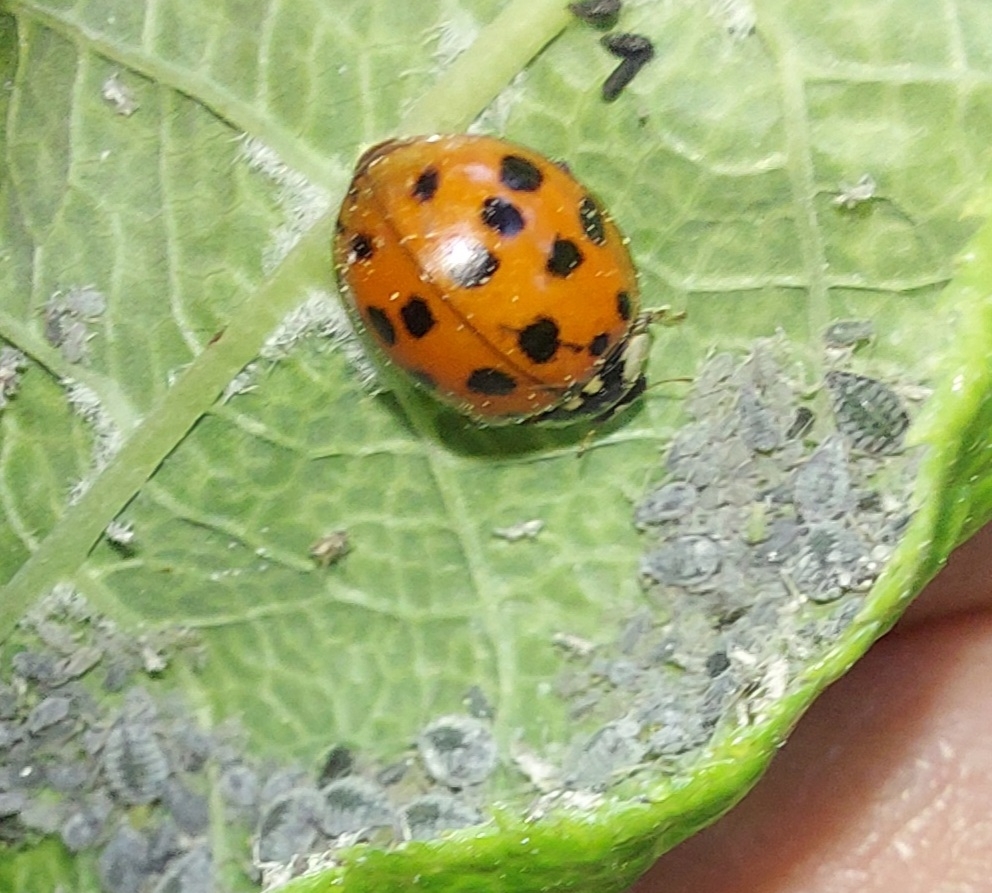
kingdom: Animalia
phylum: Arthropoda
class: Insecta
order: Coleoptera
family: Coccinellidae
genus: Harmonia
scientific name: Harmonia axyridis
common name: Harlequin ladybird
